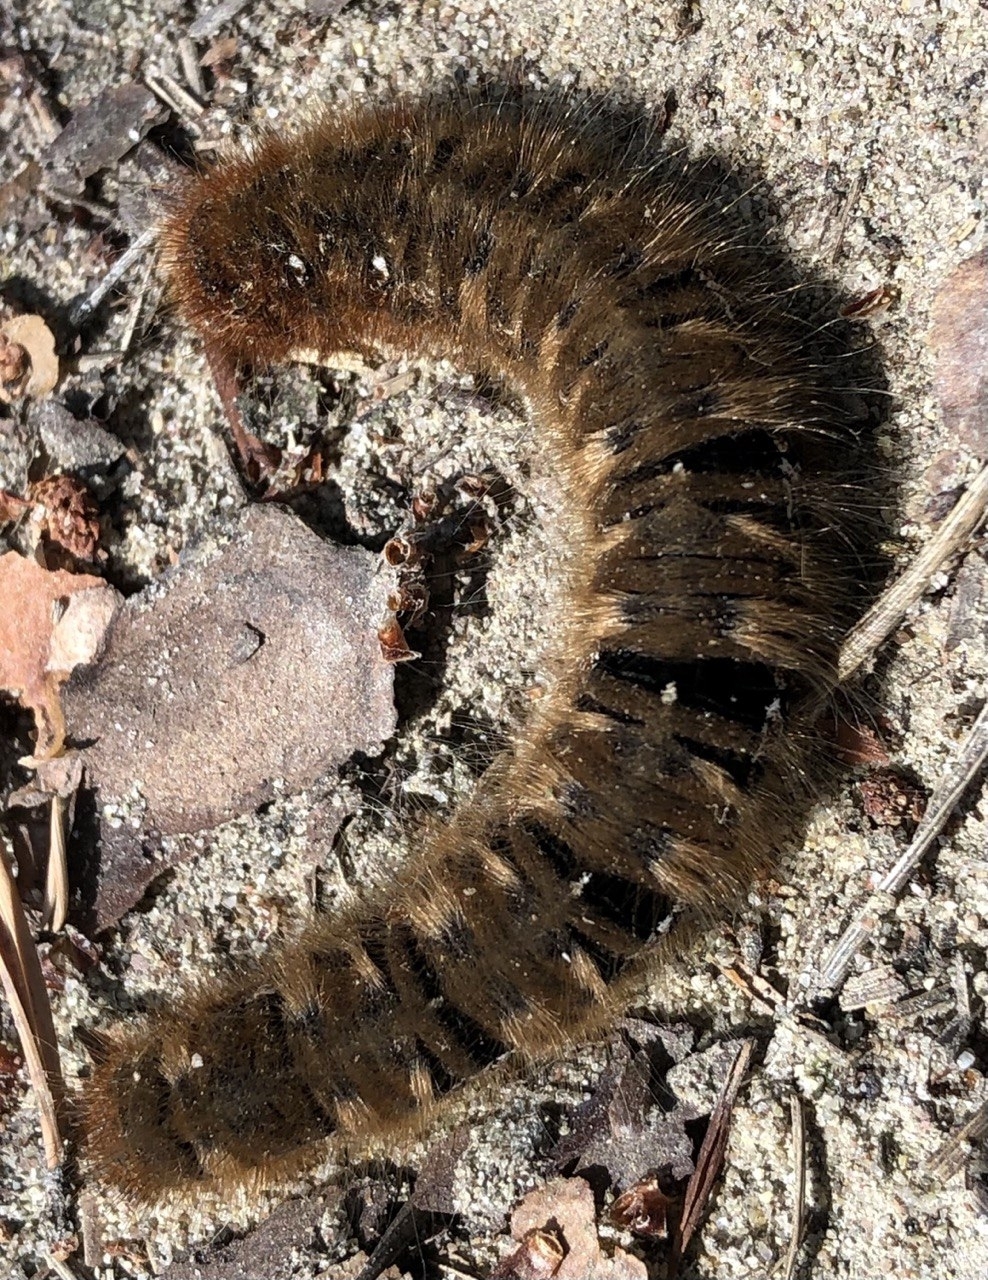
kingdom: Animalia
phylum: Arthropoda
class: Insecta
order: Lepidoptera
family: Lasiocampidae
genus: Lasiocampa
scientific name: Lasiocampa quercus
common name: Oak eggar
